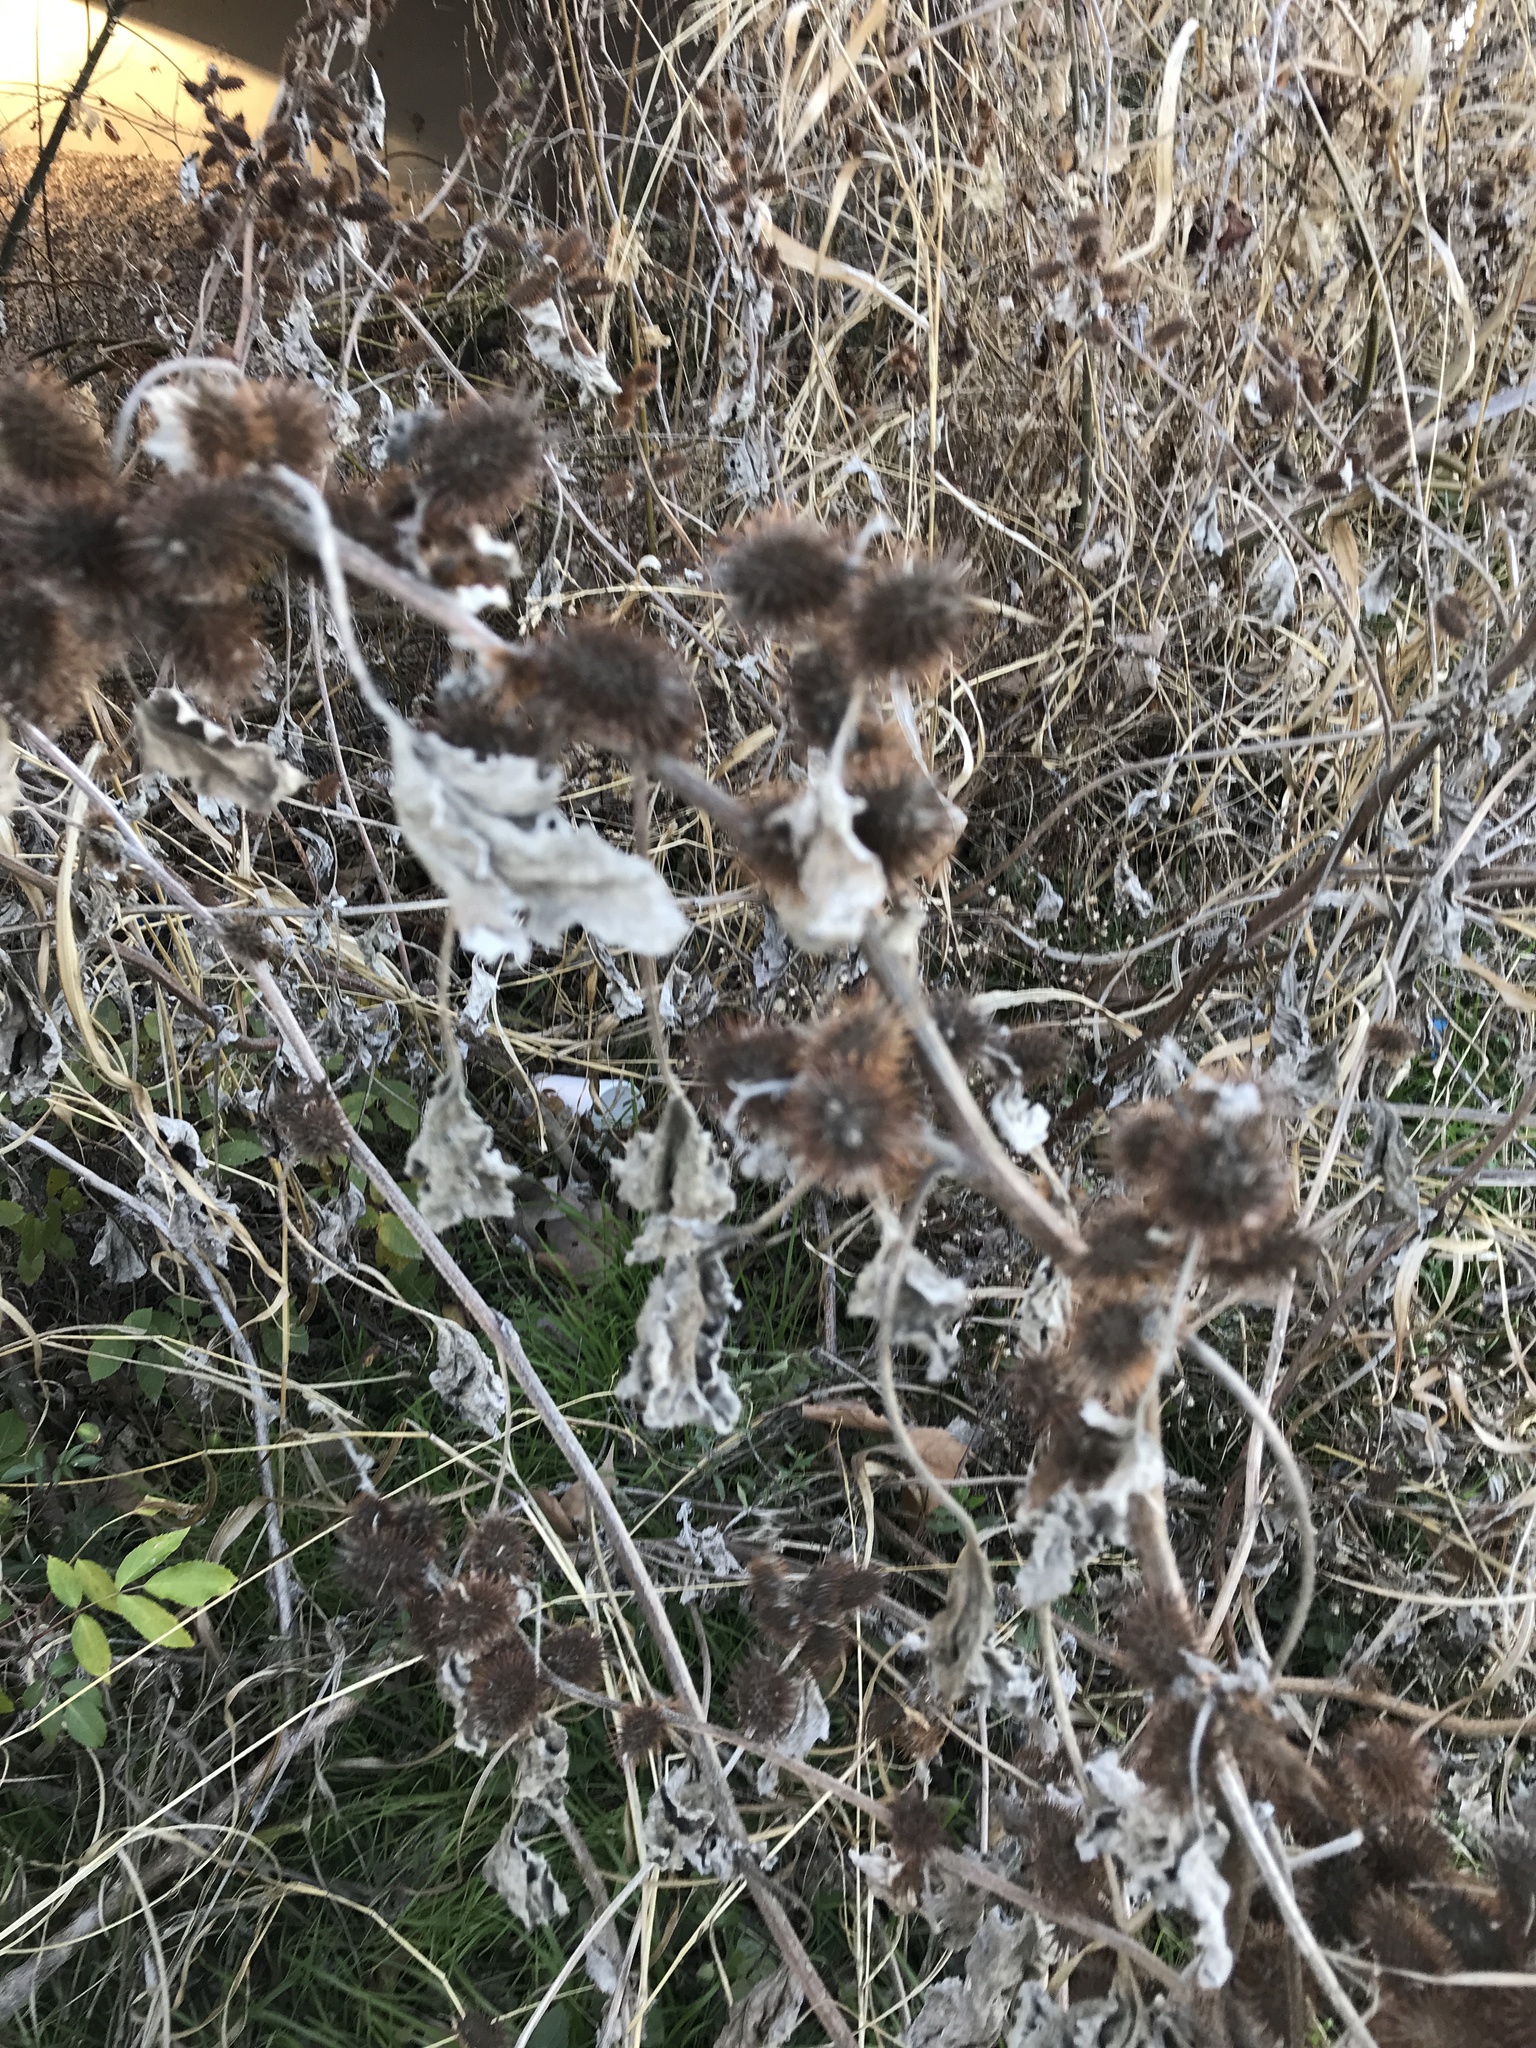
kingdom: Plantae
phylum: Tracheophyta
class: Magnoliopsida
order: Asterales
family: Asteraceae
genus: Xanthium
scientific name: Xanthium strumarium
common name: Rough cocklebur
